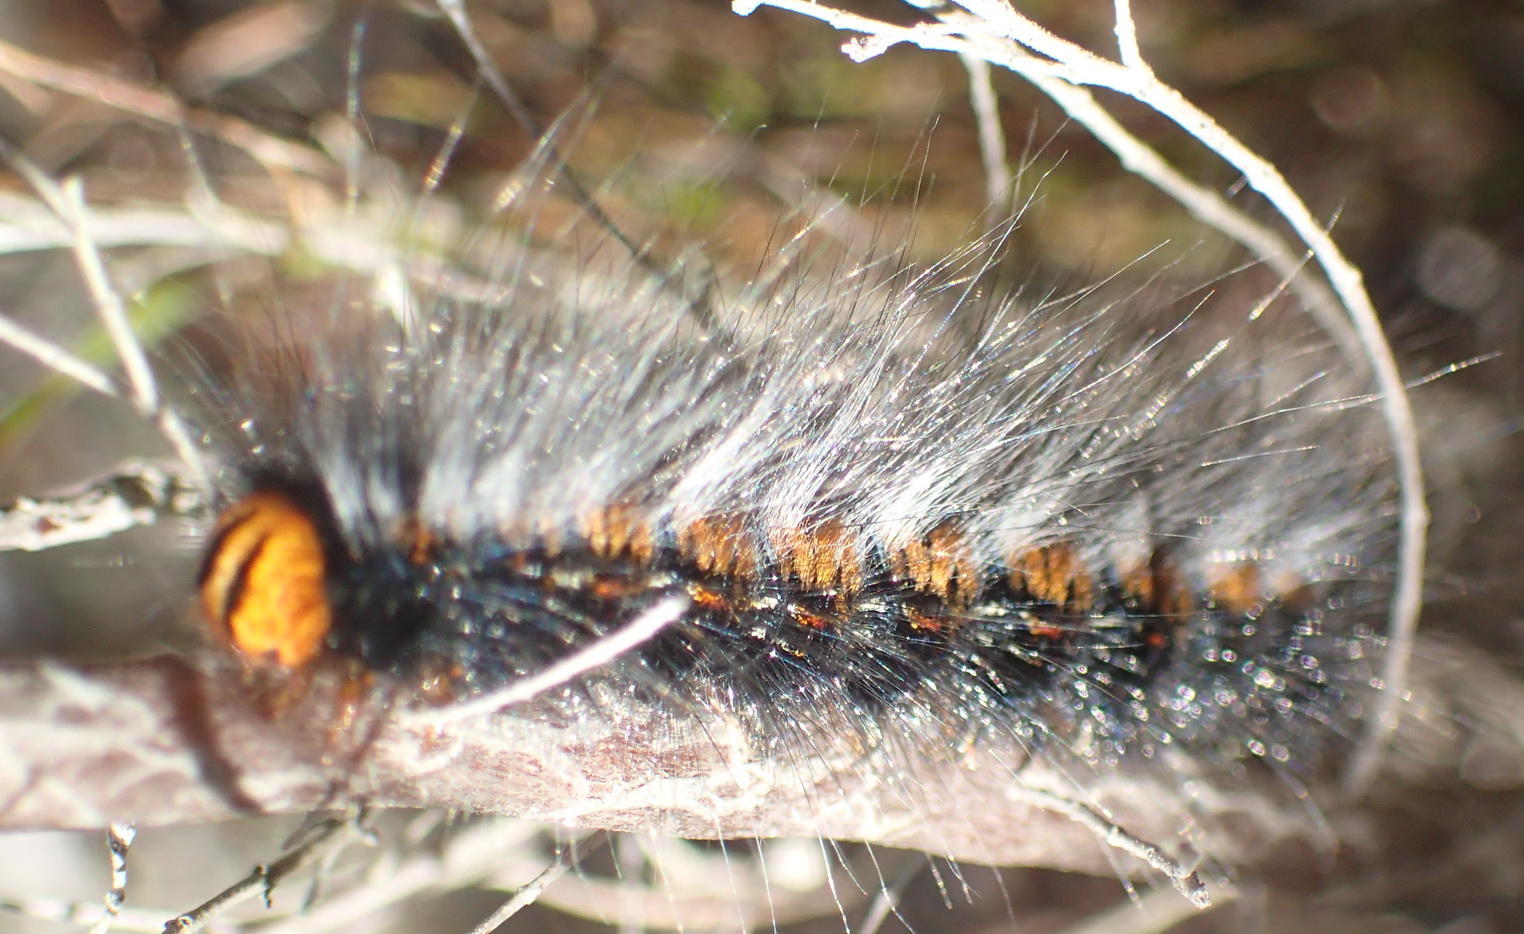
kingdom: Animalia
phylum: Arthropoda
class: Insecta
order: Lepidoptera
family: Lasiocampidae
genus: Mesocelis
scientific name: Mesocelis monticola
